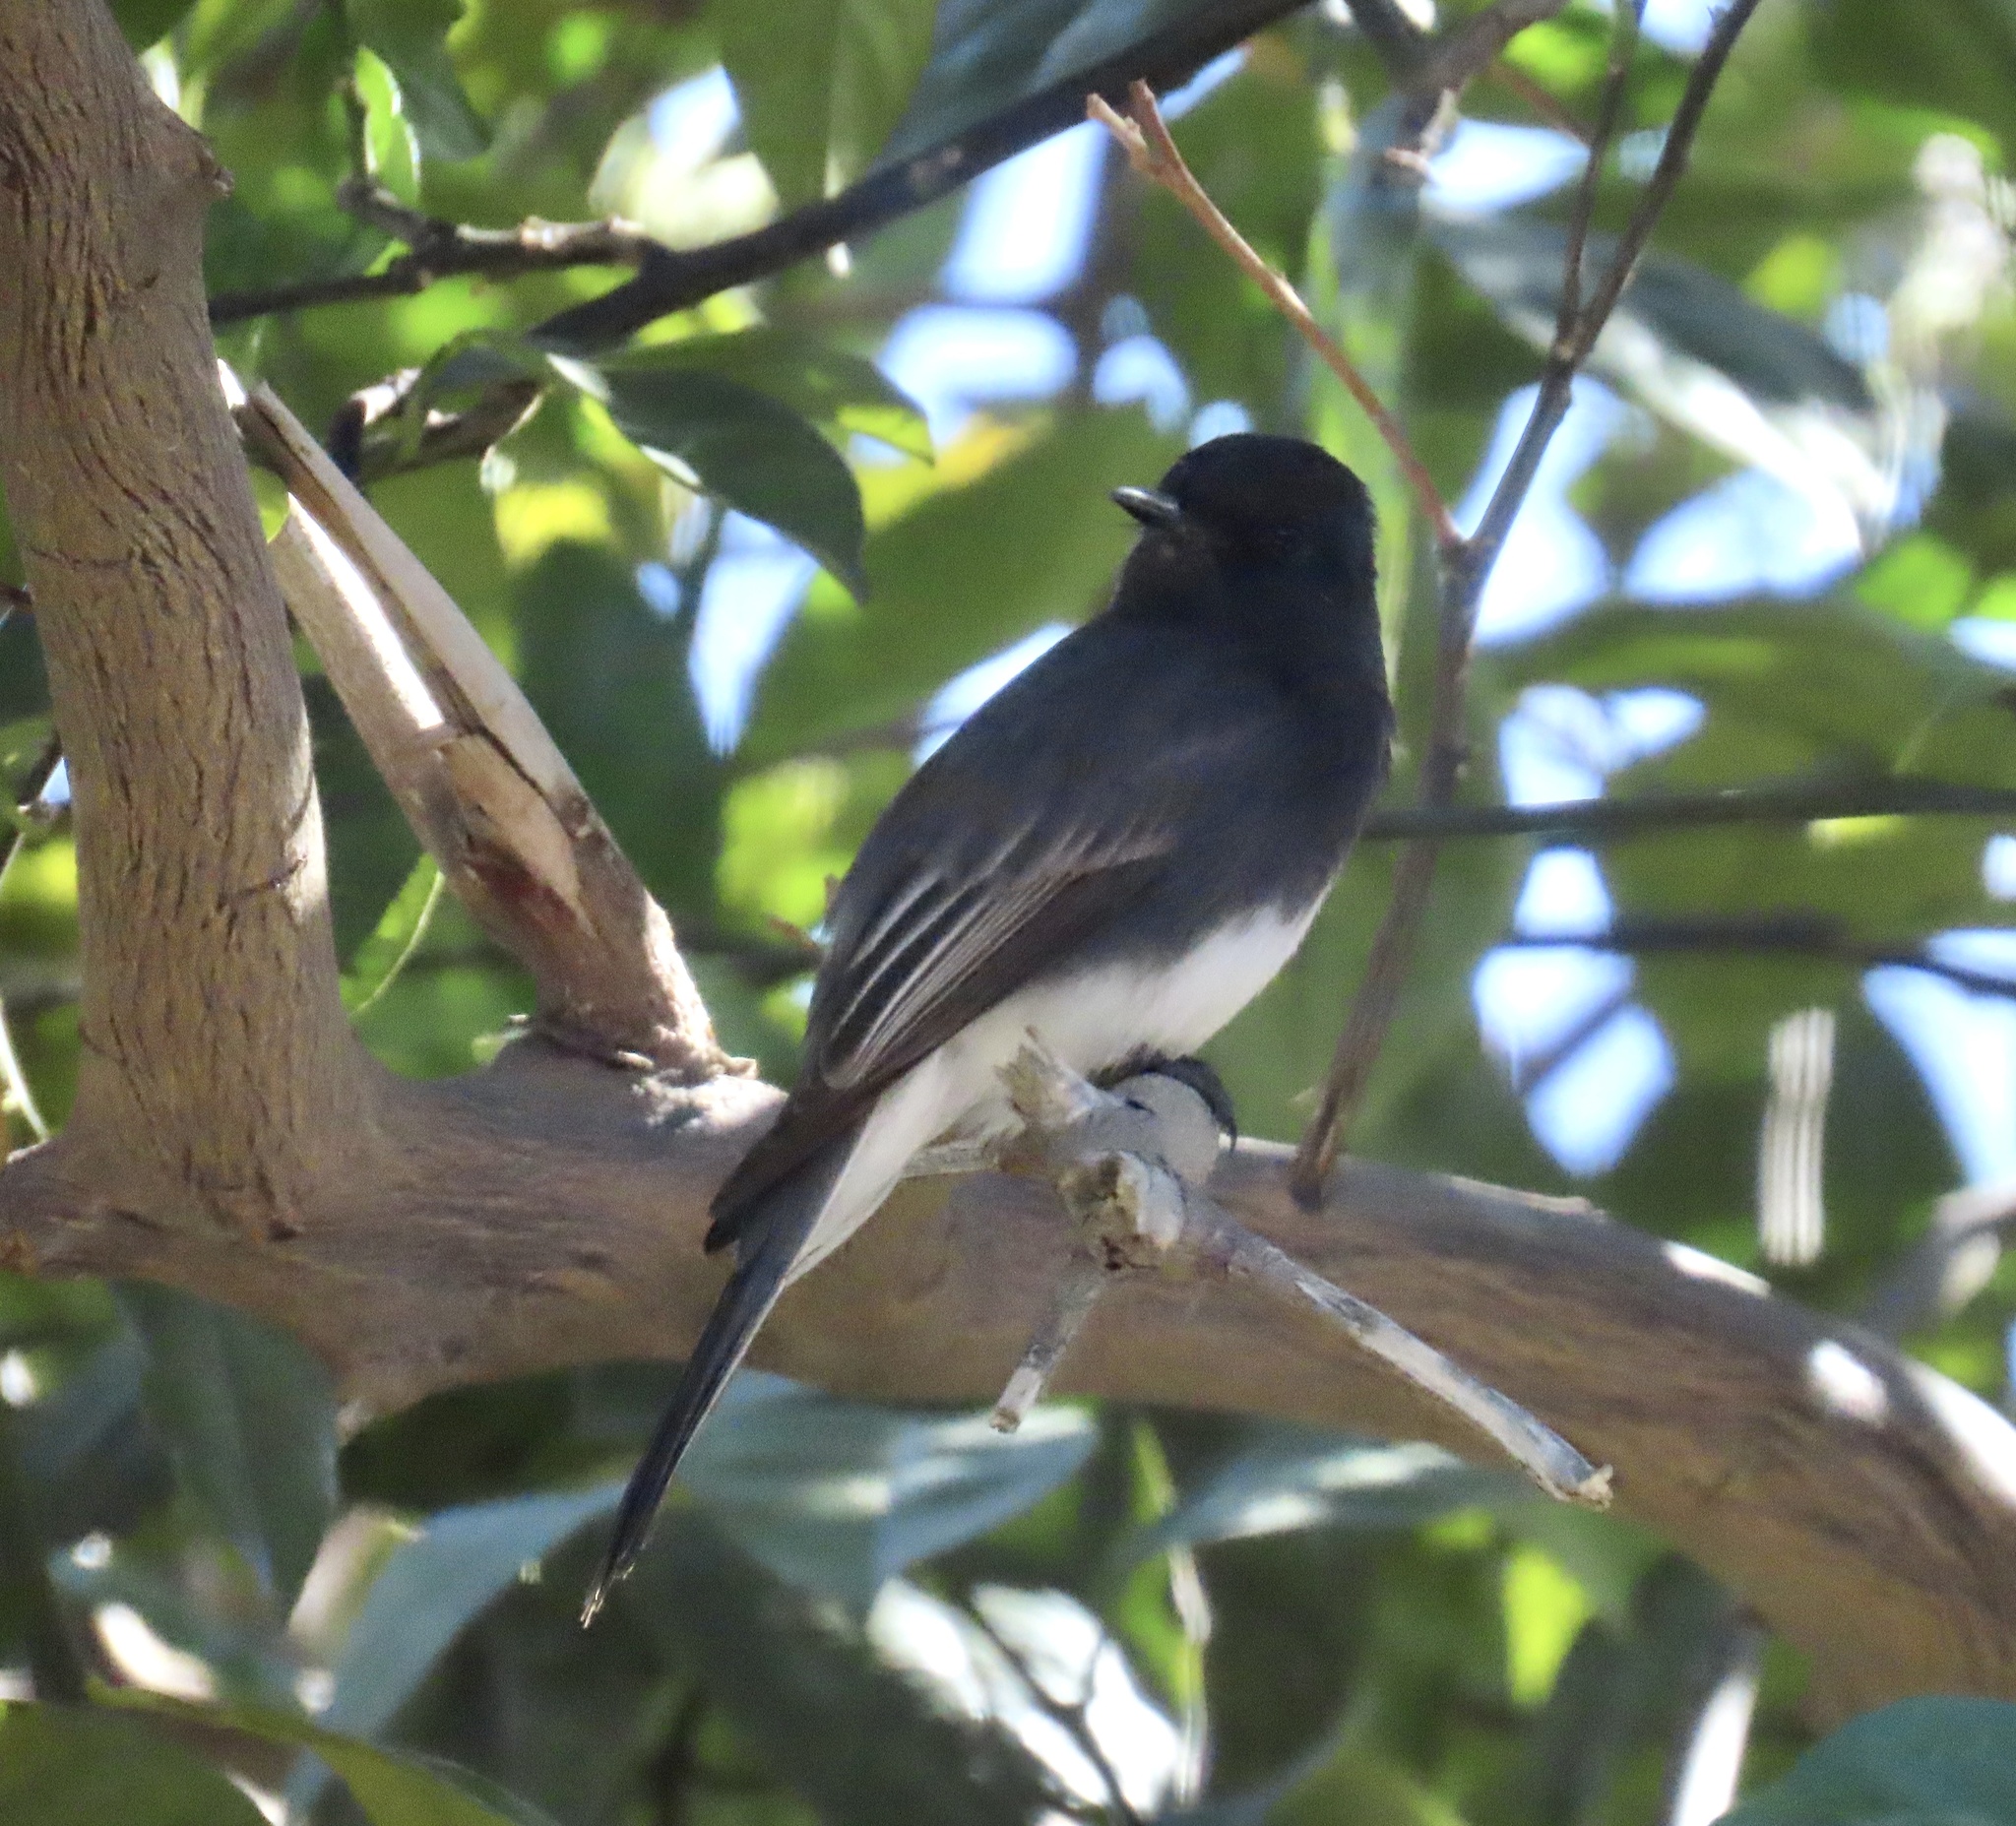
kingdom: Animalia
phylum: Chordata
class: Aves
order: Passeriformes
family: Tyrannidae
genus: Sayornis
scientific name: Sayornis nigricans
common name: Black phoebe
